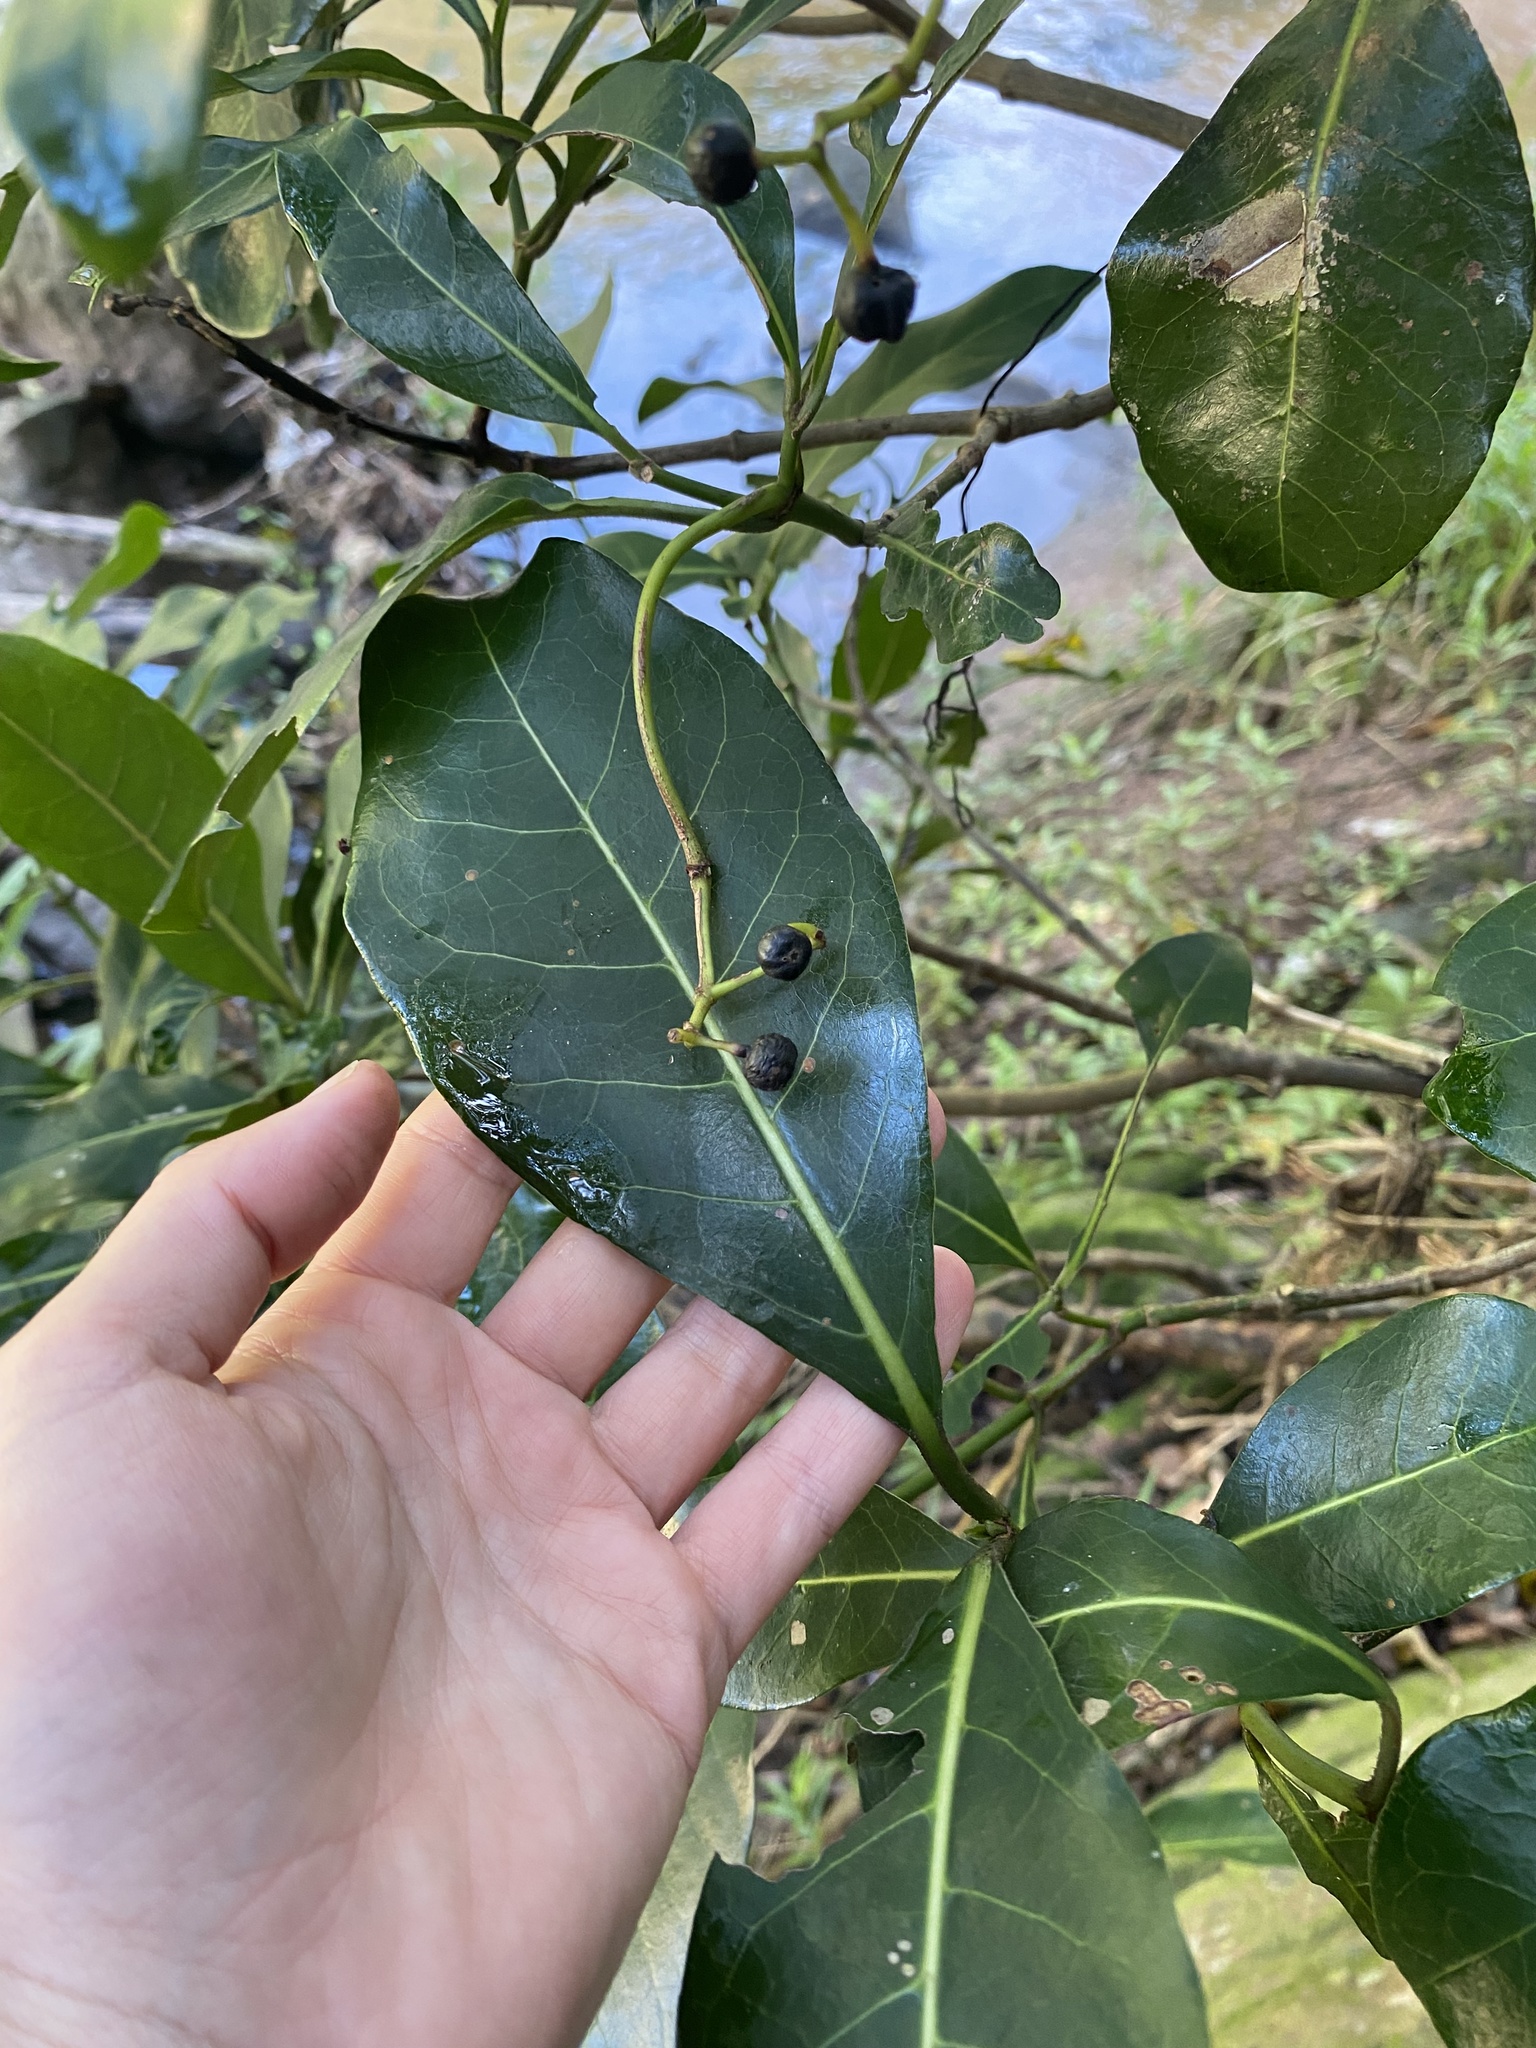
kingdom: Plantae
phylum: Tracheophyta
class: Magnoliopsida
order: Gentianales
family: Rubiaceae
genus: Psychotria
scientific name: Psychotria capensis
